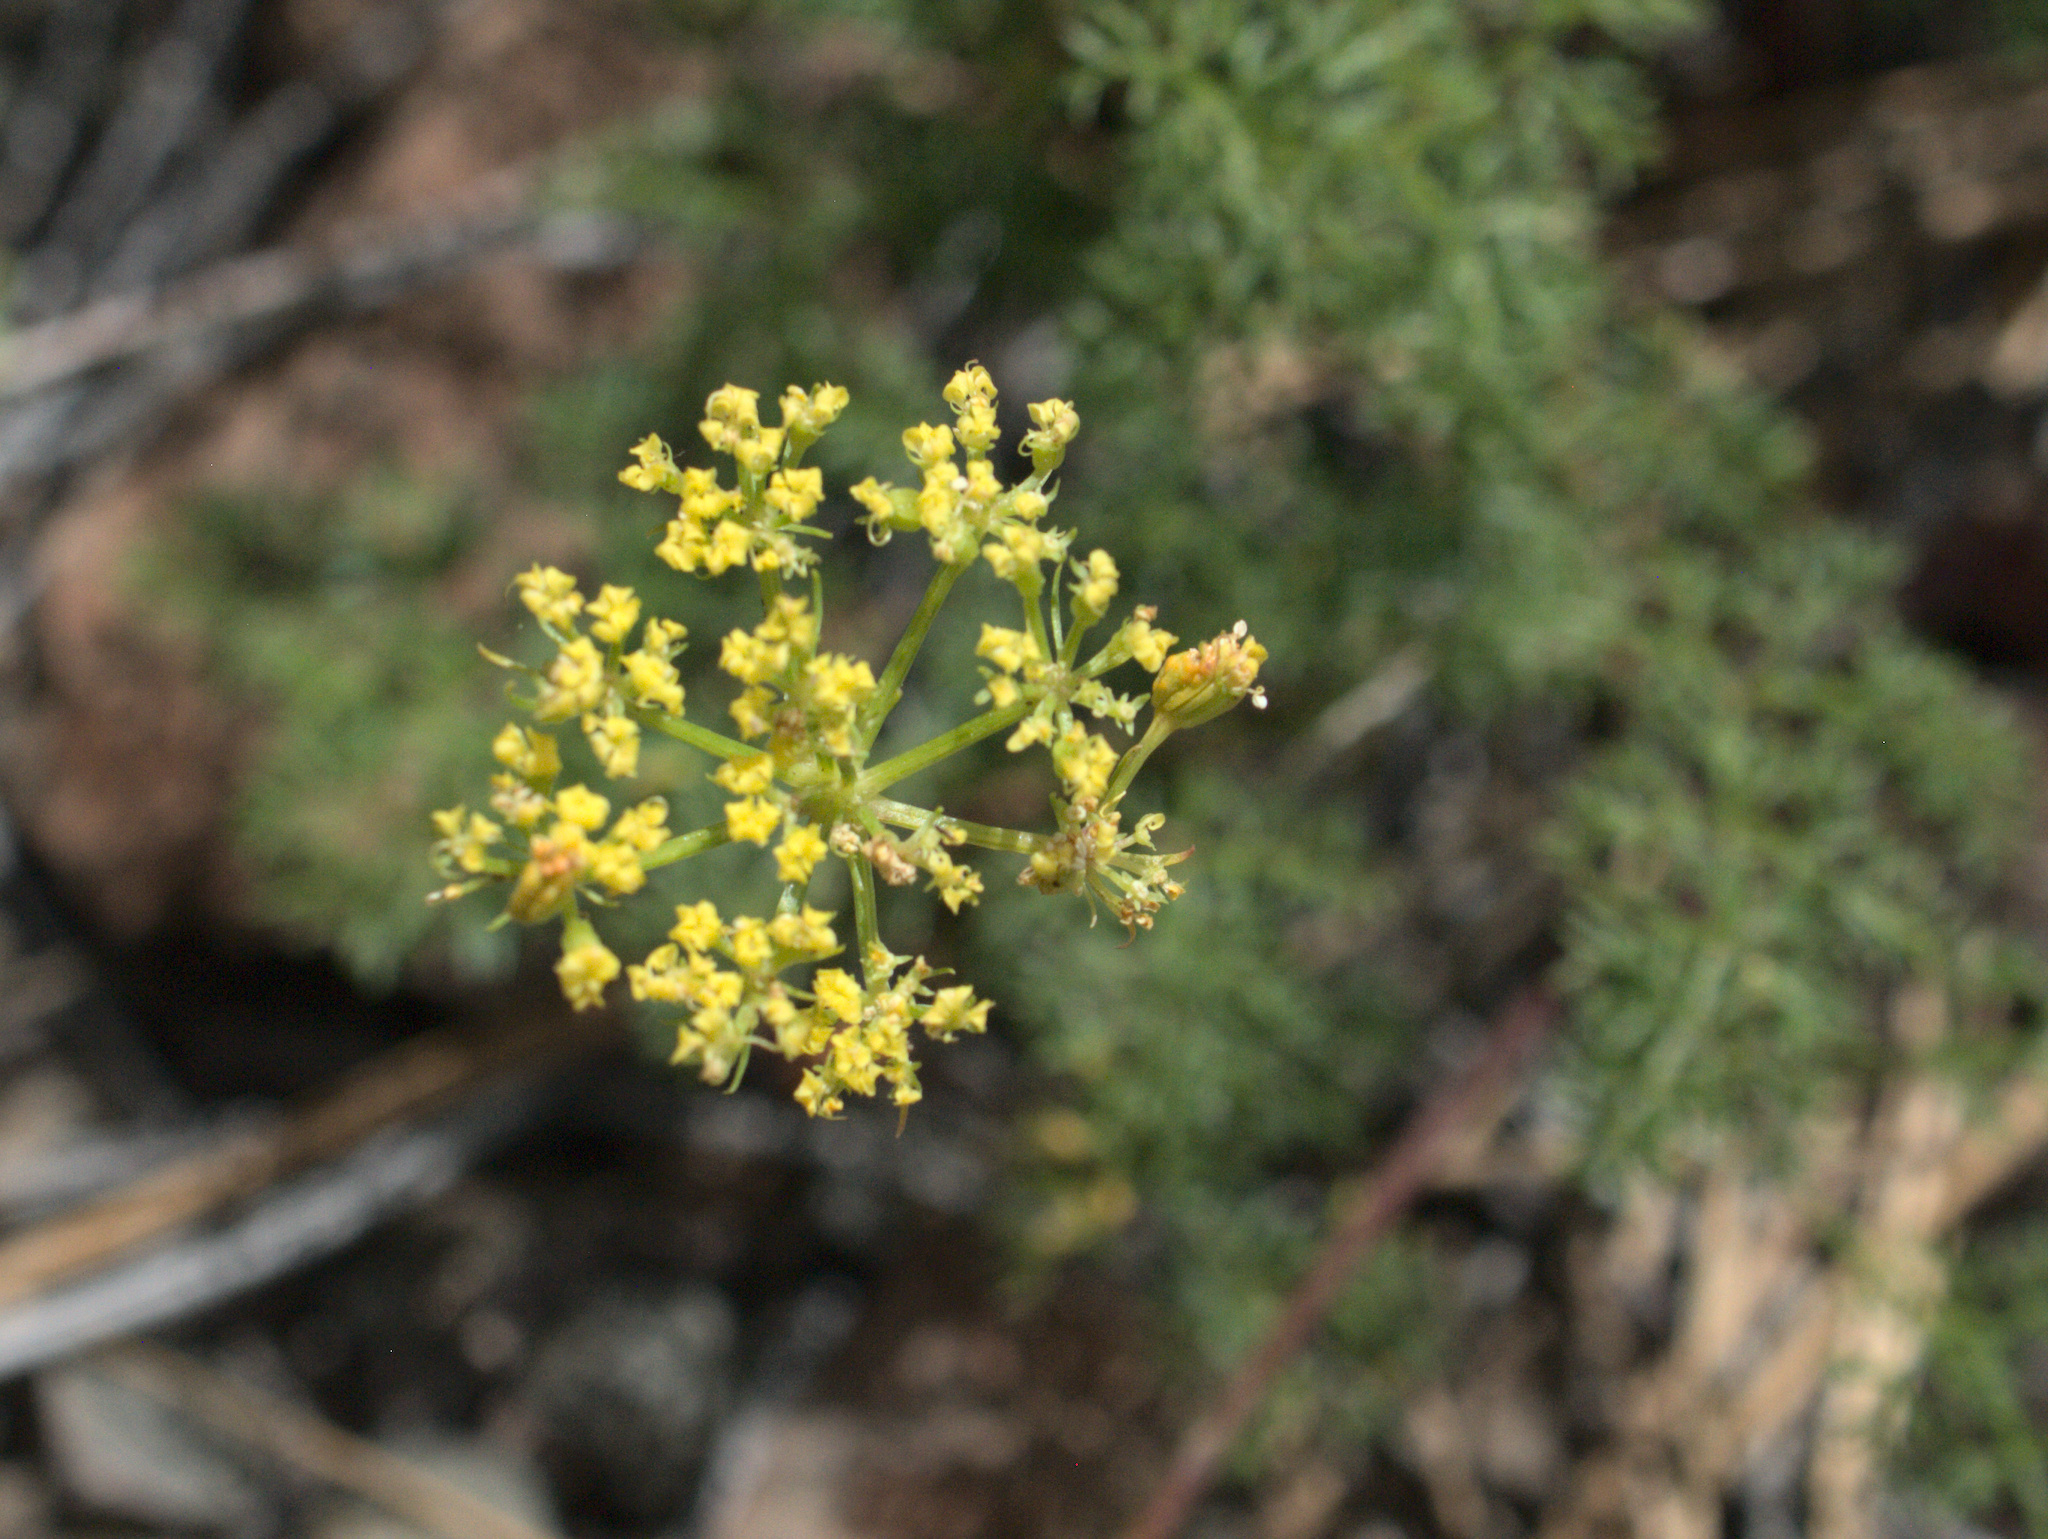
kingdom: Plantae
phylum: Tracheophyta
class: Magnoliopsida
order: Apiales
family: Apiaceae
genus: Lomatium
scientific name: Lomatium papilioniferum
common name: Butterfly lomatium
